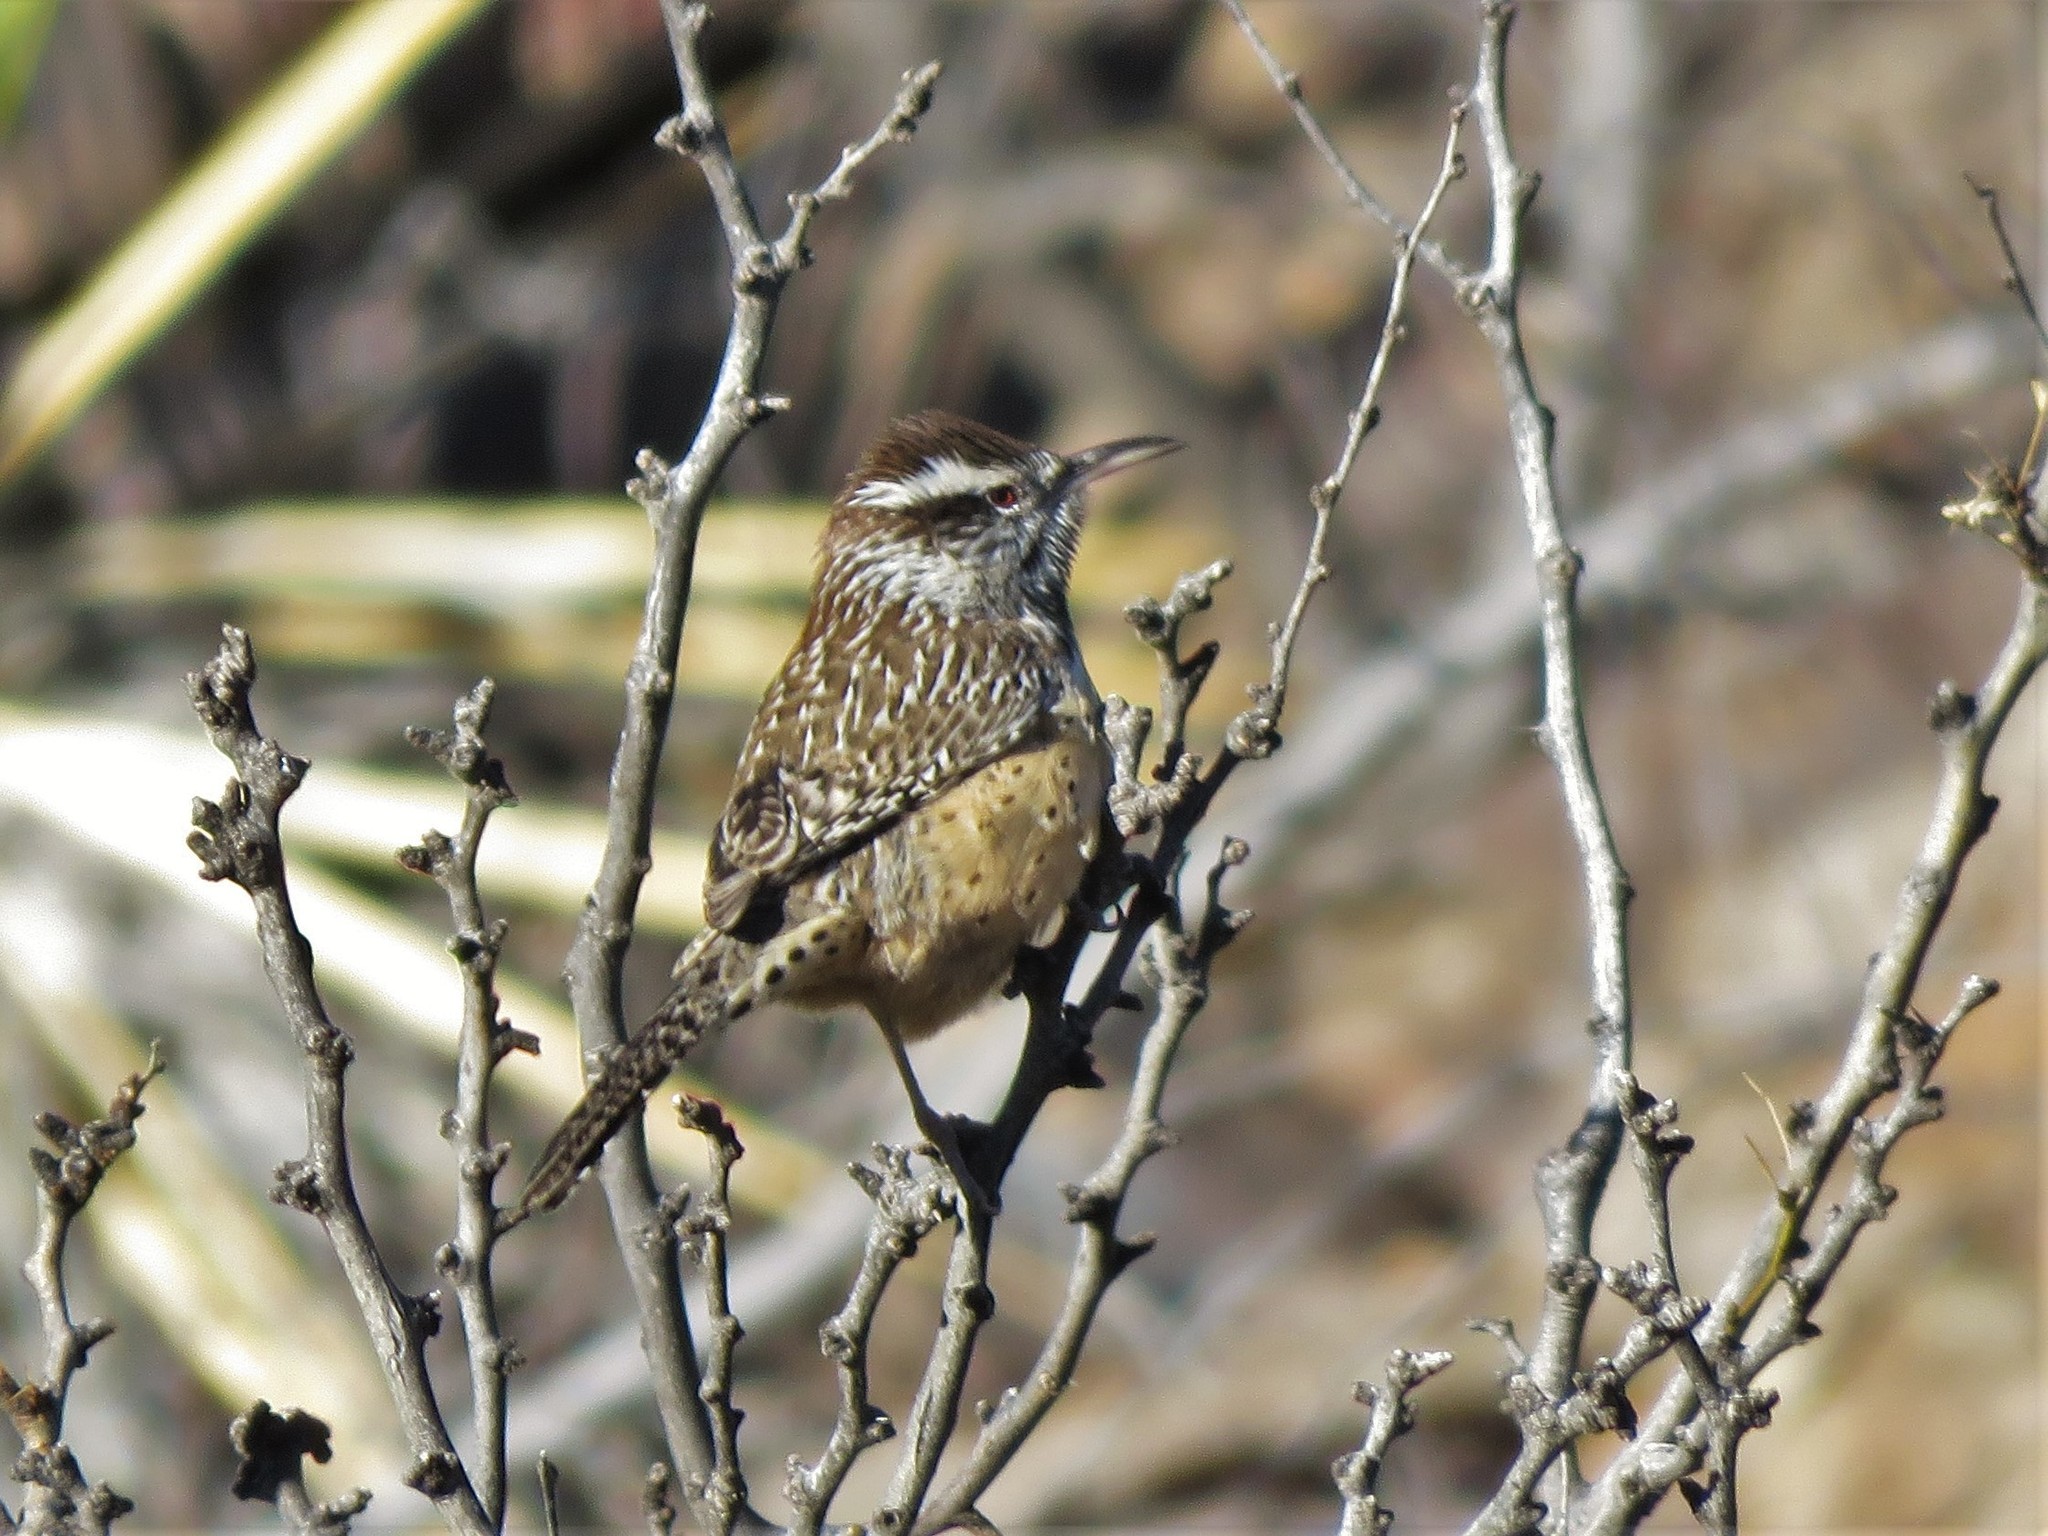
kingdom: Animalia
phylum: Chordata
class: Aves
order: Passeriformes
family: Troglodytidae
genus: Campylorhynchus
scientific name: Campylorhynchus brunneicapillus
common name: Cactus wren
